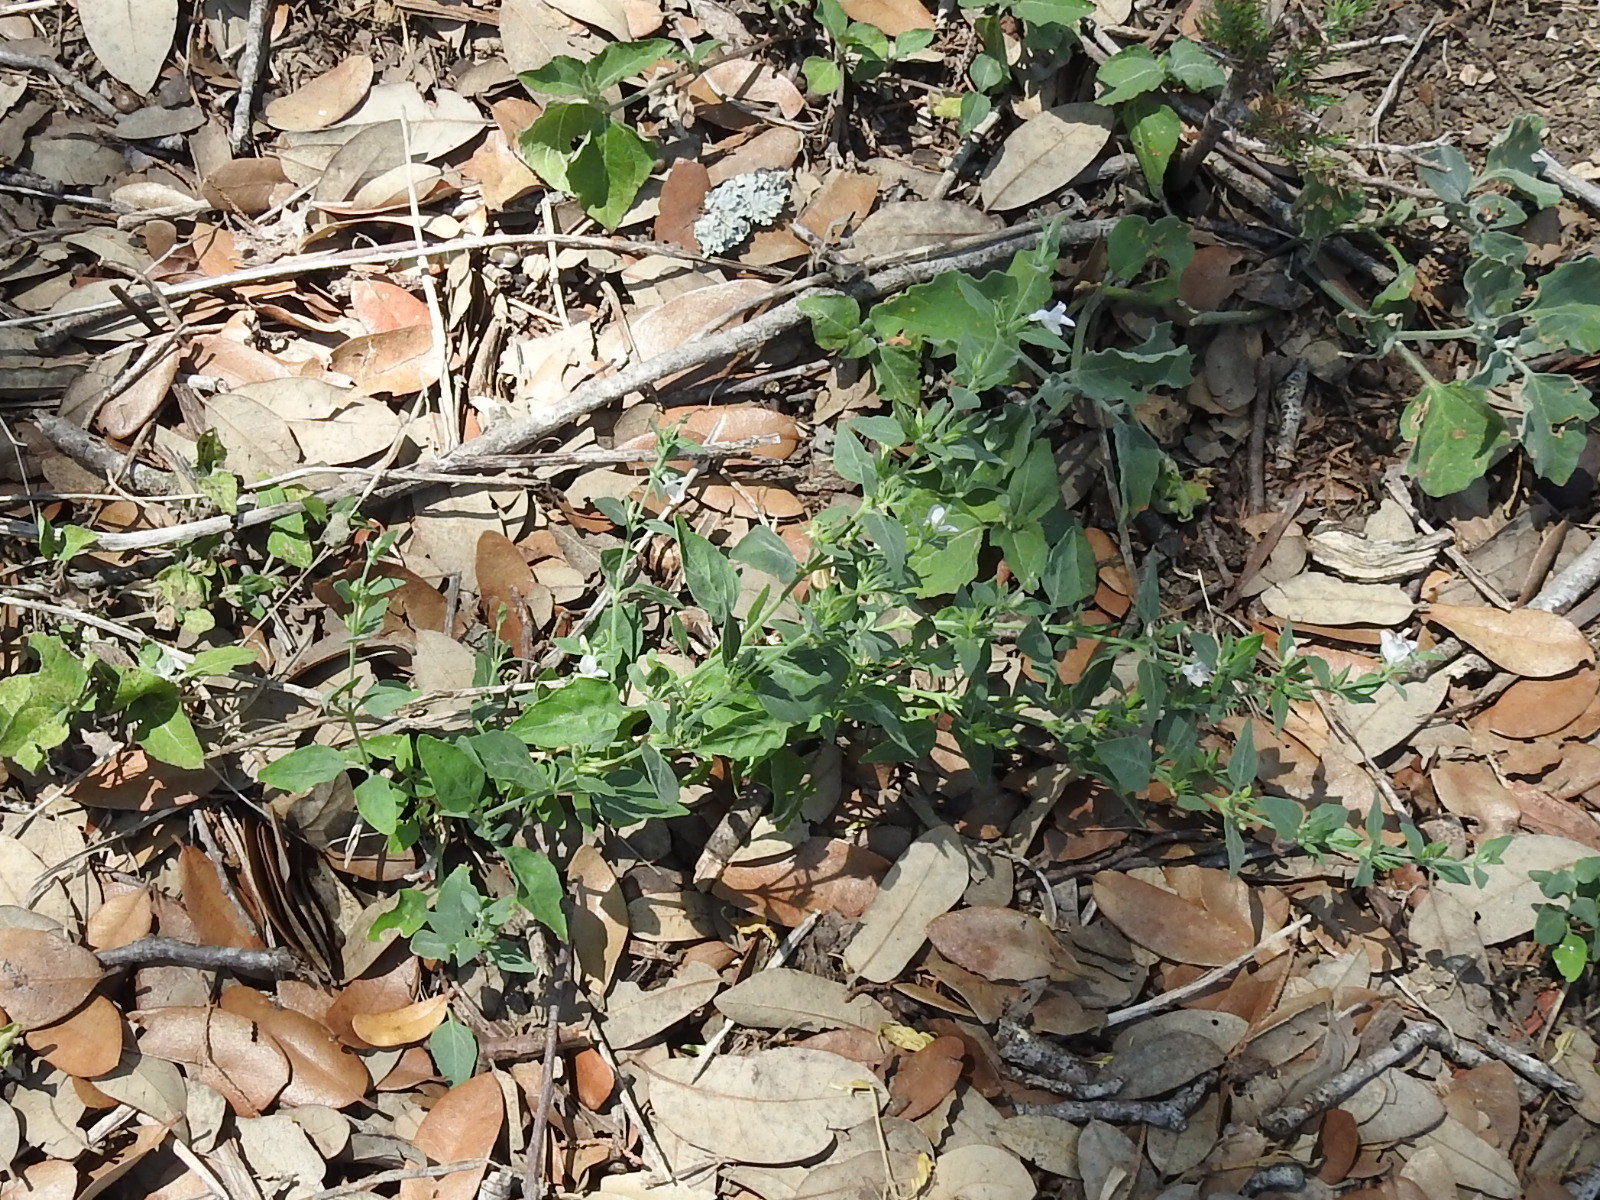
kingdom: Plantae
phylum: Tracheophyta
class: Magnoliopsida
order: Lamiales
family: Acanthaceae
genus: Carlowrightia
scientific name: Carlowrightia texana
